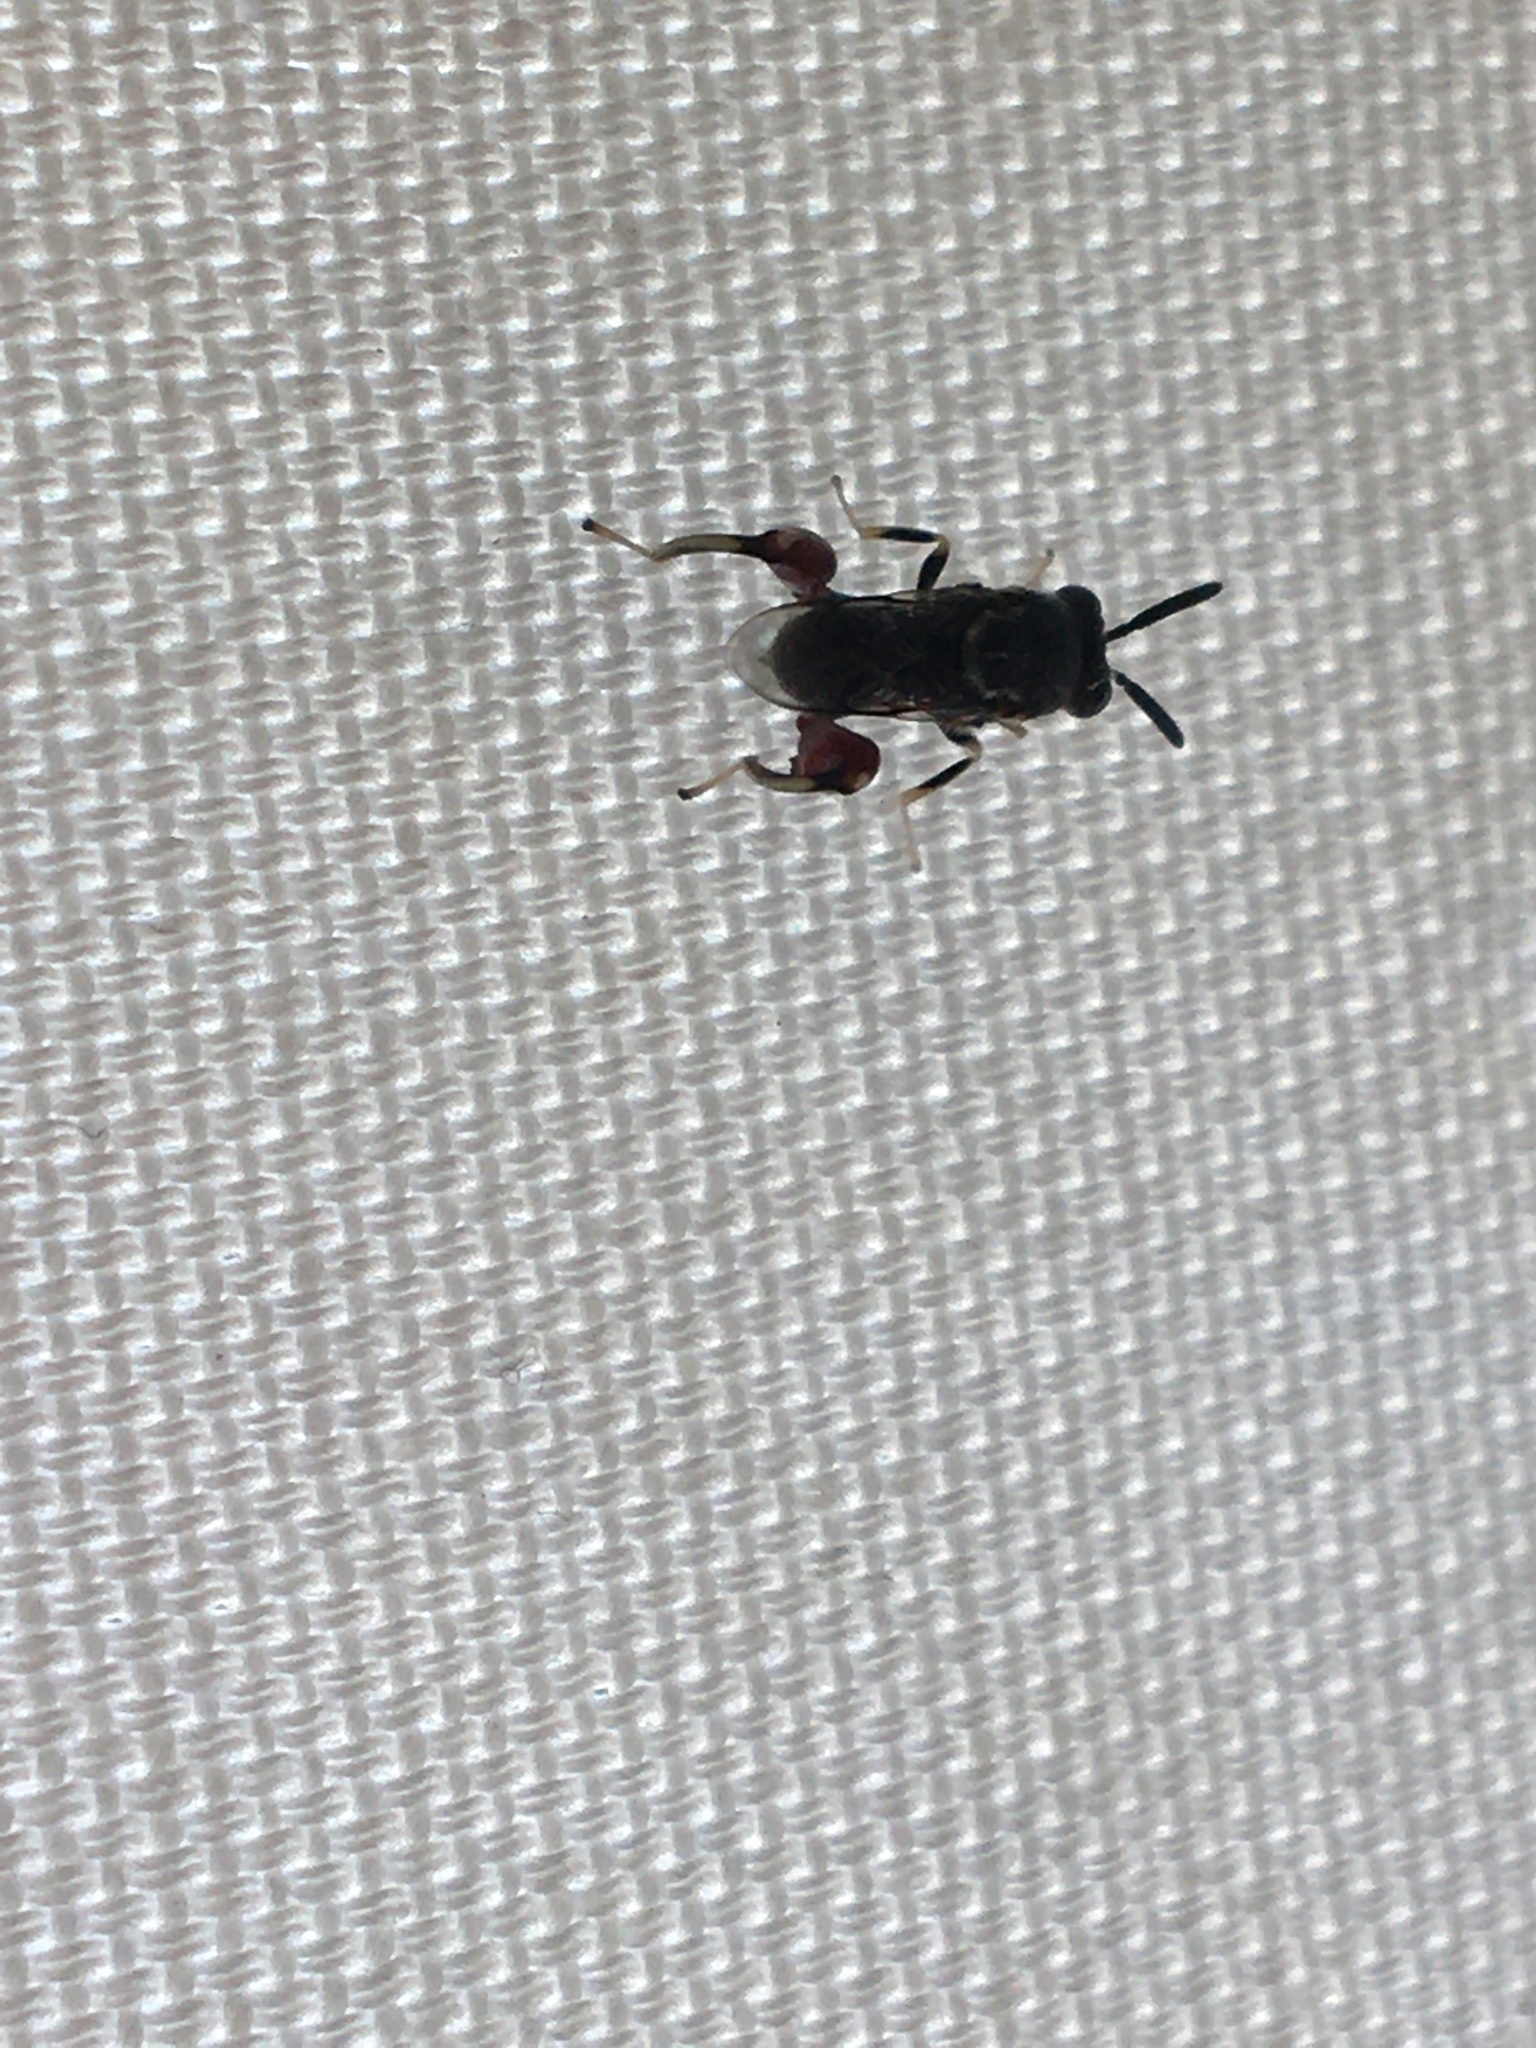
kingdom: Animalia
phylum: Arthropoda
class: Insecta
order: Hymenoptera
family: Chalcididae
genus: Brachymeria
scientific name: Brachymeria podagrica
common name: Chalcid wasp
